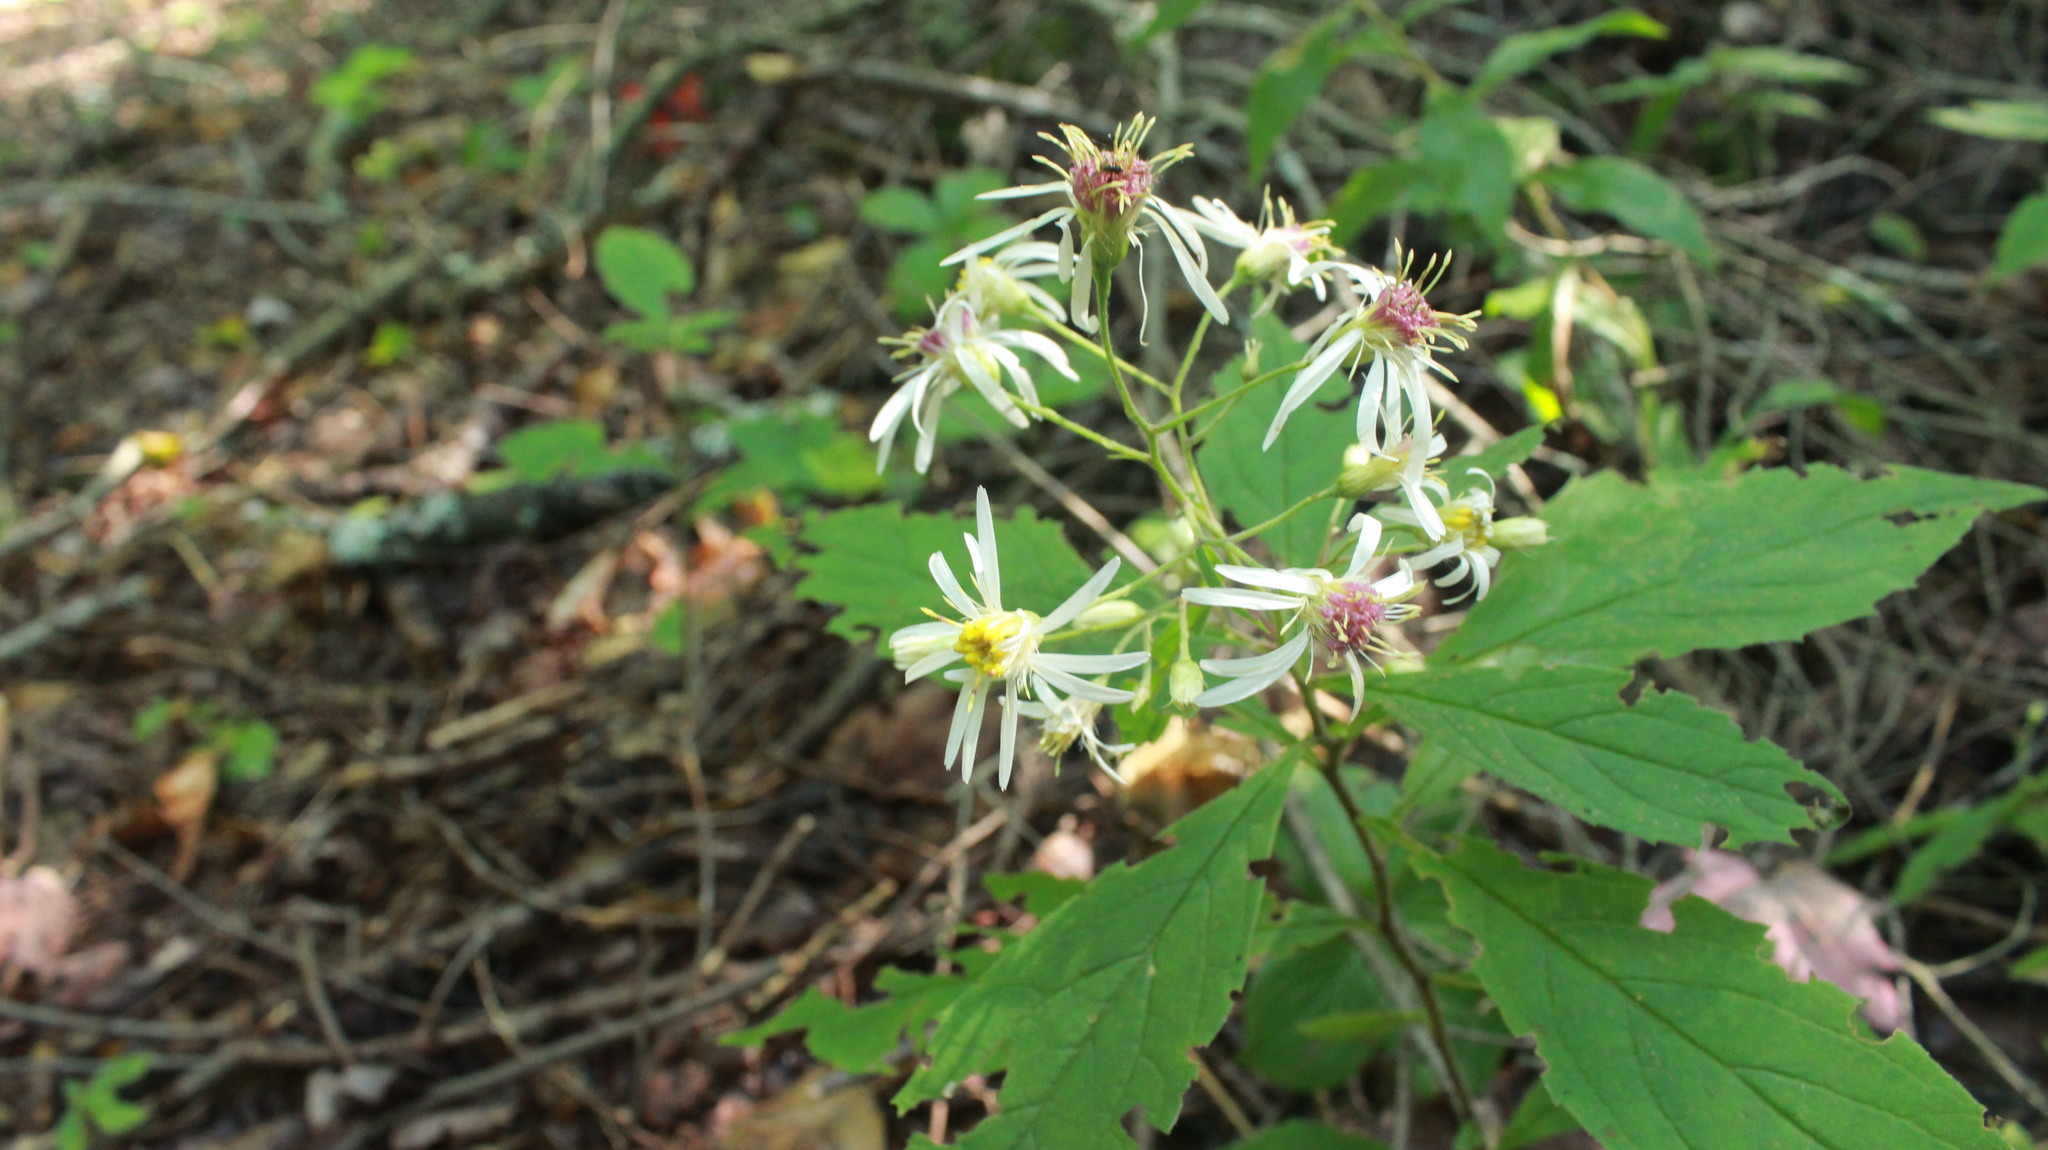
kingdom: Plantae
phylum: Tracheophyta
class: Magnoliopsida
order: Asterales
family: Asteraceae
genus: Oclemena
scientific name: Oclemena acuminata
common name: Mountain aster
